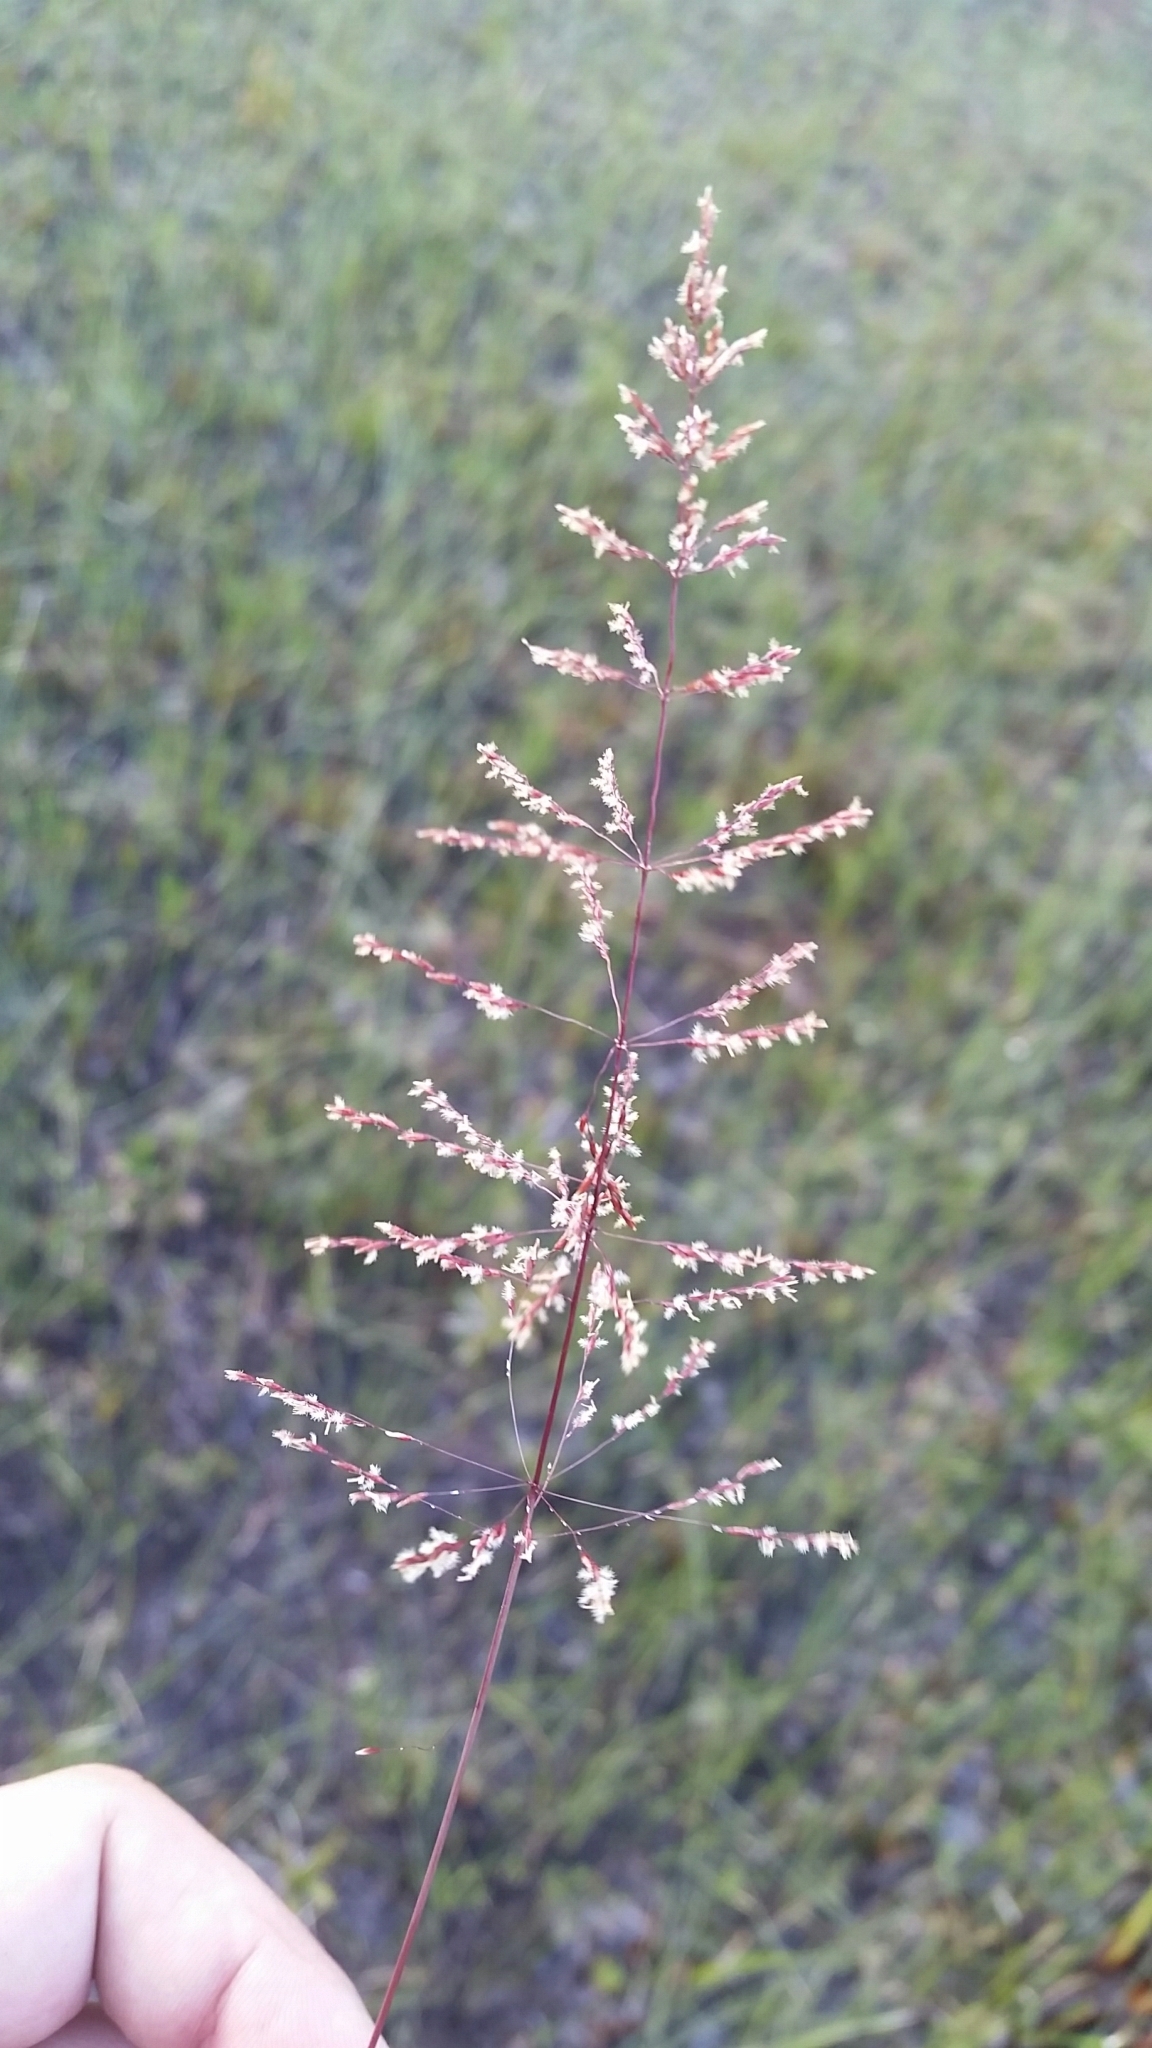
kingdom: Plantae
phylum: Tracheophyta
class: Liliopsida
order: Poales
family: Poaceae
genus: Sporobolus
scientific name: Sporobolus junceus
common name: Lizard grass
